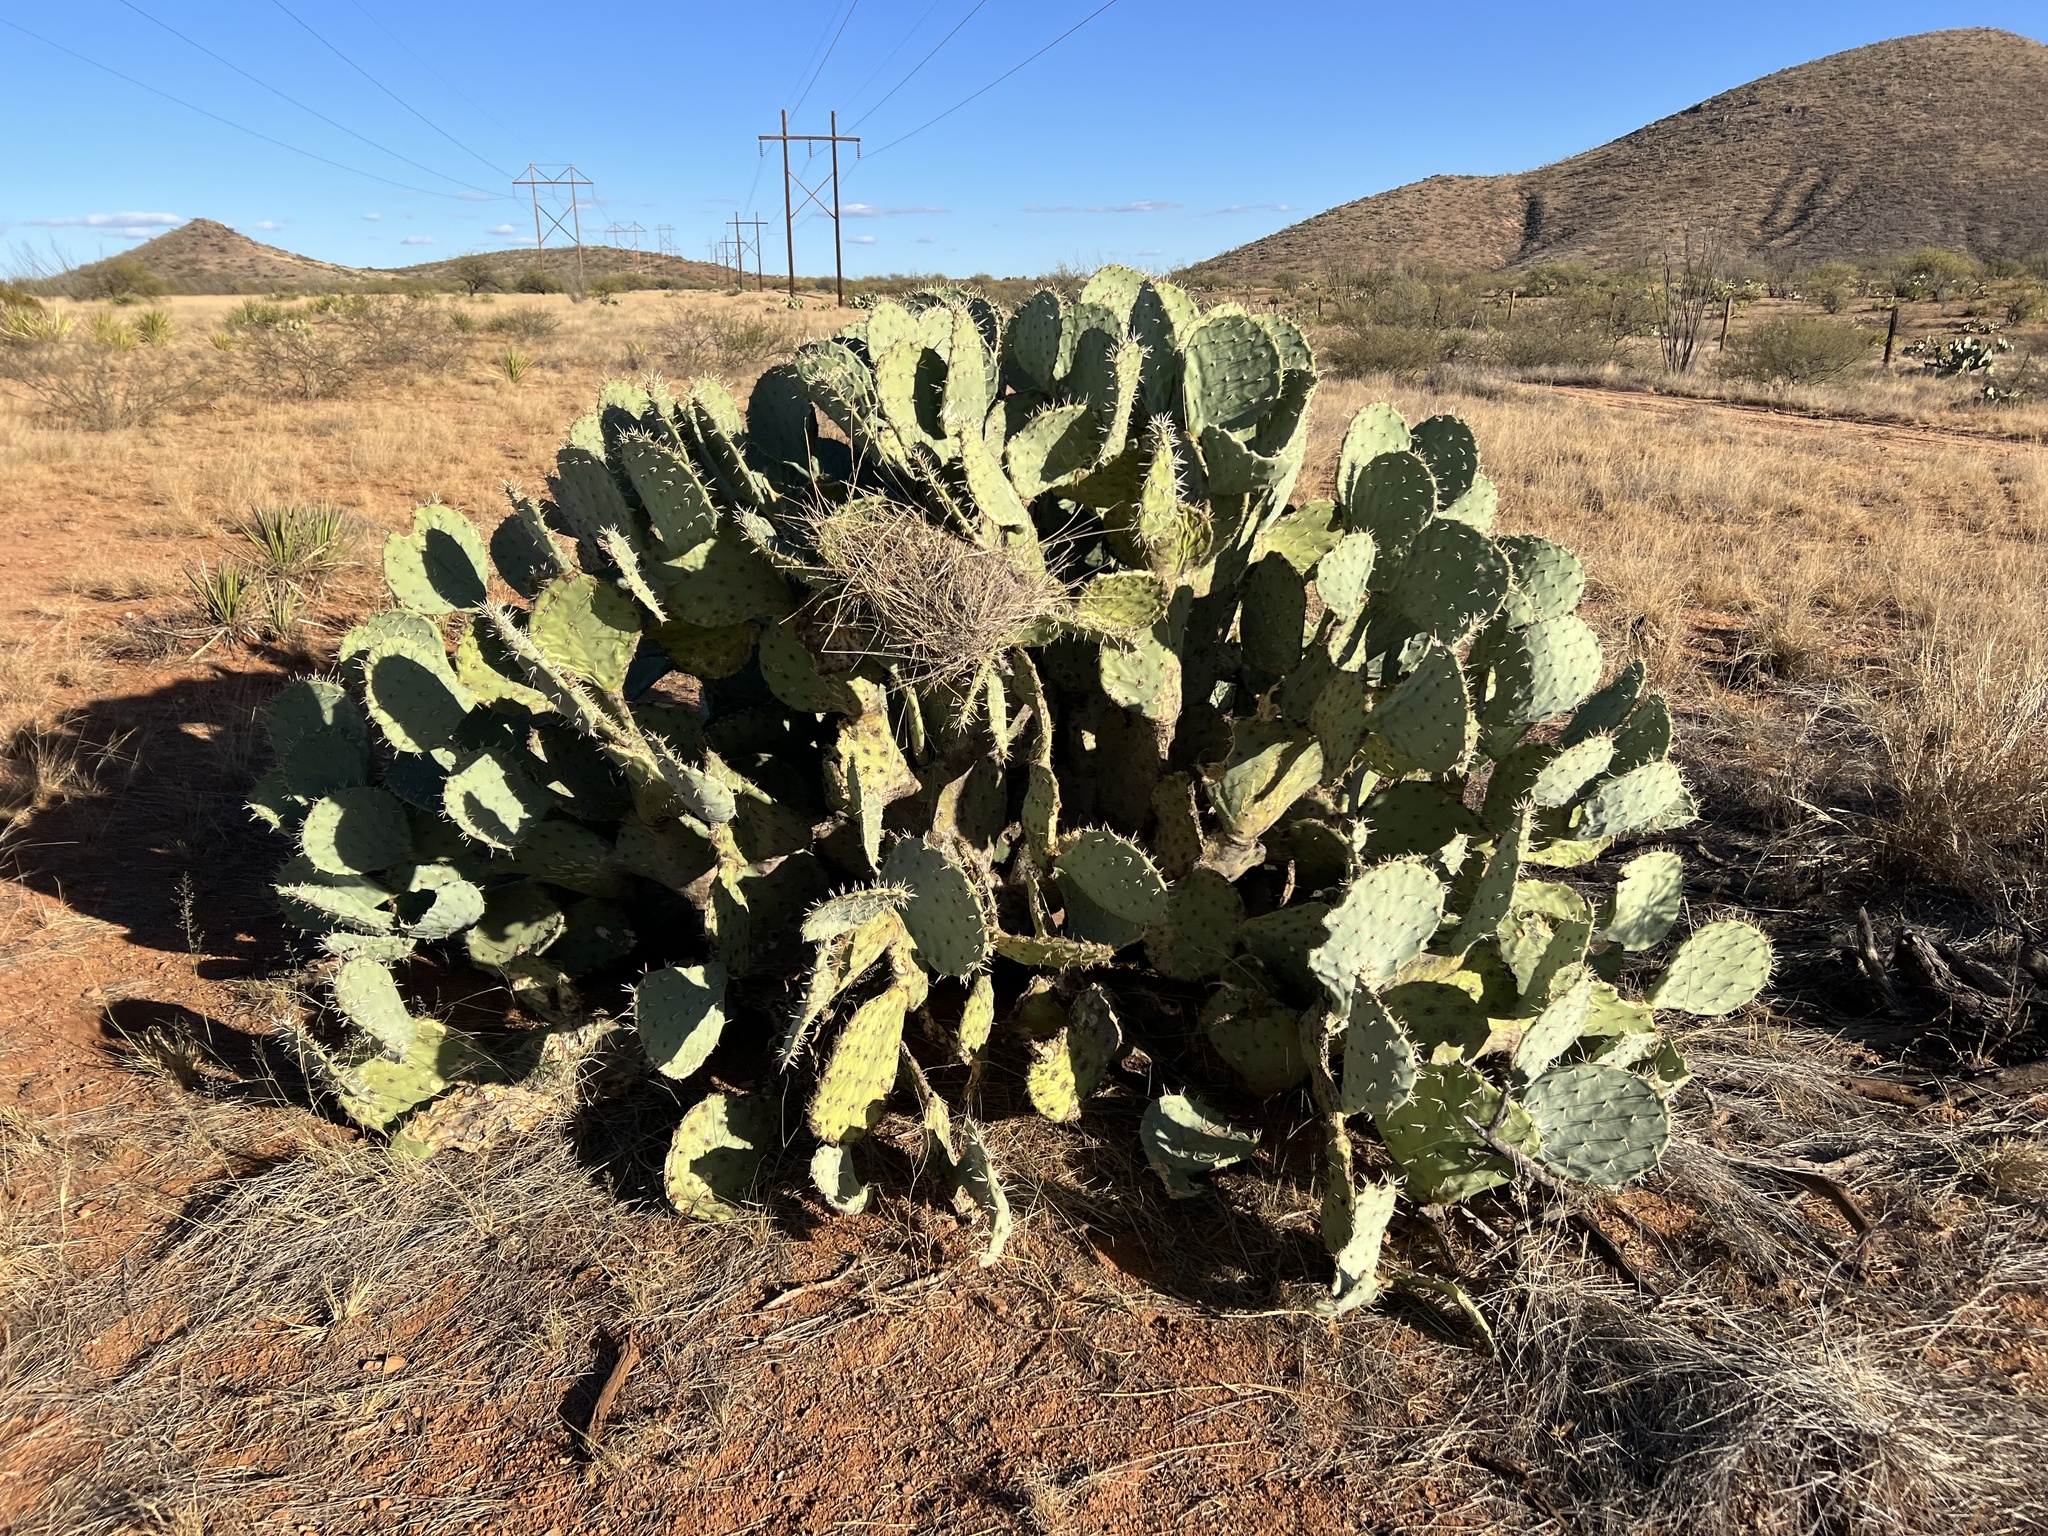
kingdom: Plantae
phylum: Tracheophyta
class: Magnoliopsida
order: Caryophyllales
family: Cactaceae
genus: Opuntia
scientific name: Opuntia engelmannii
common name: Cactus-apple
